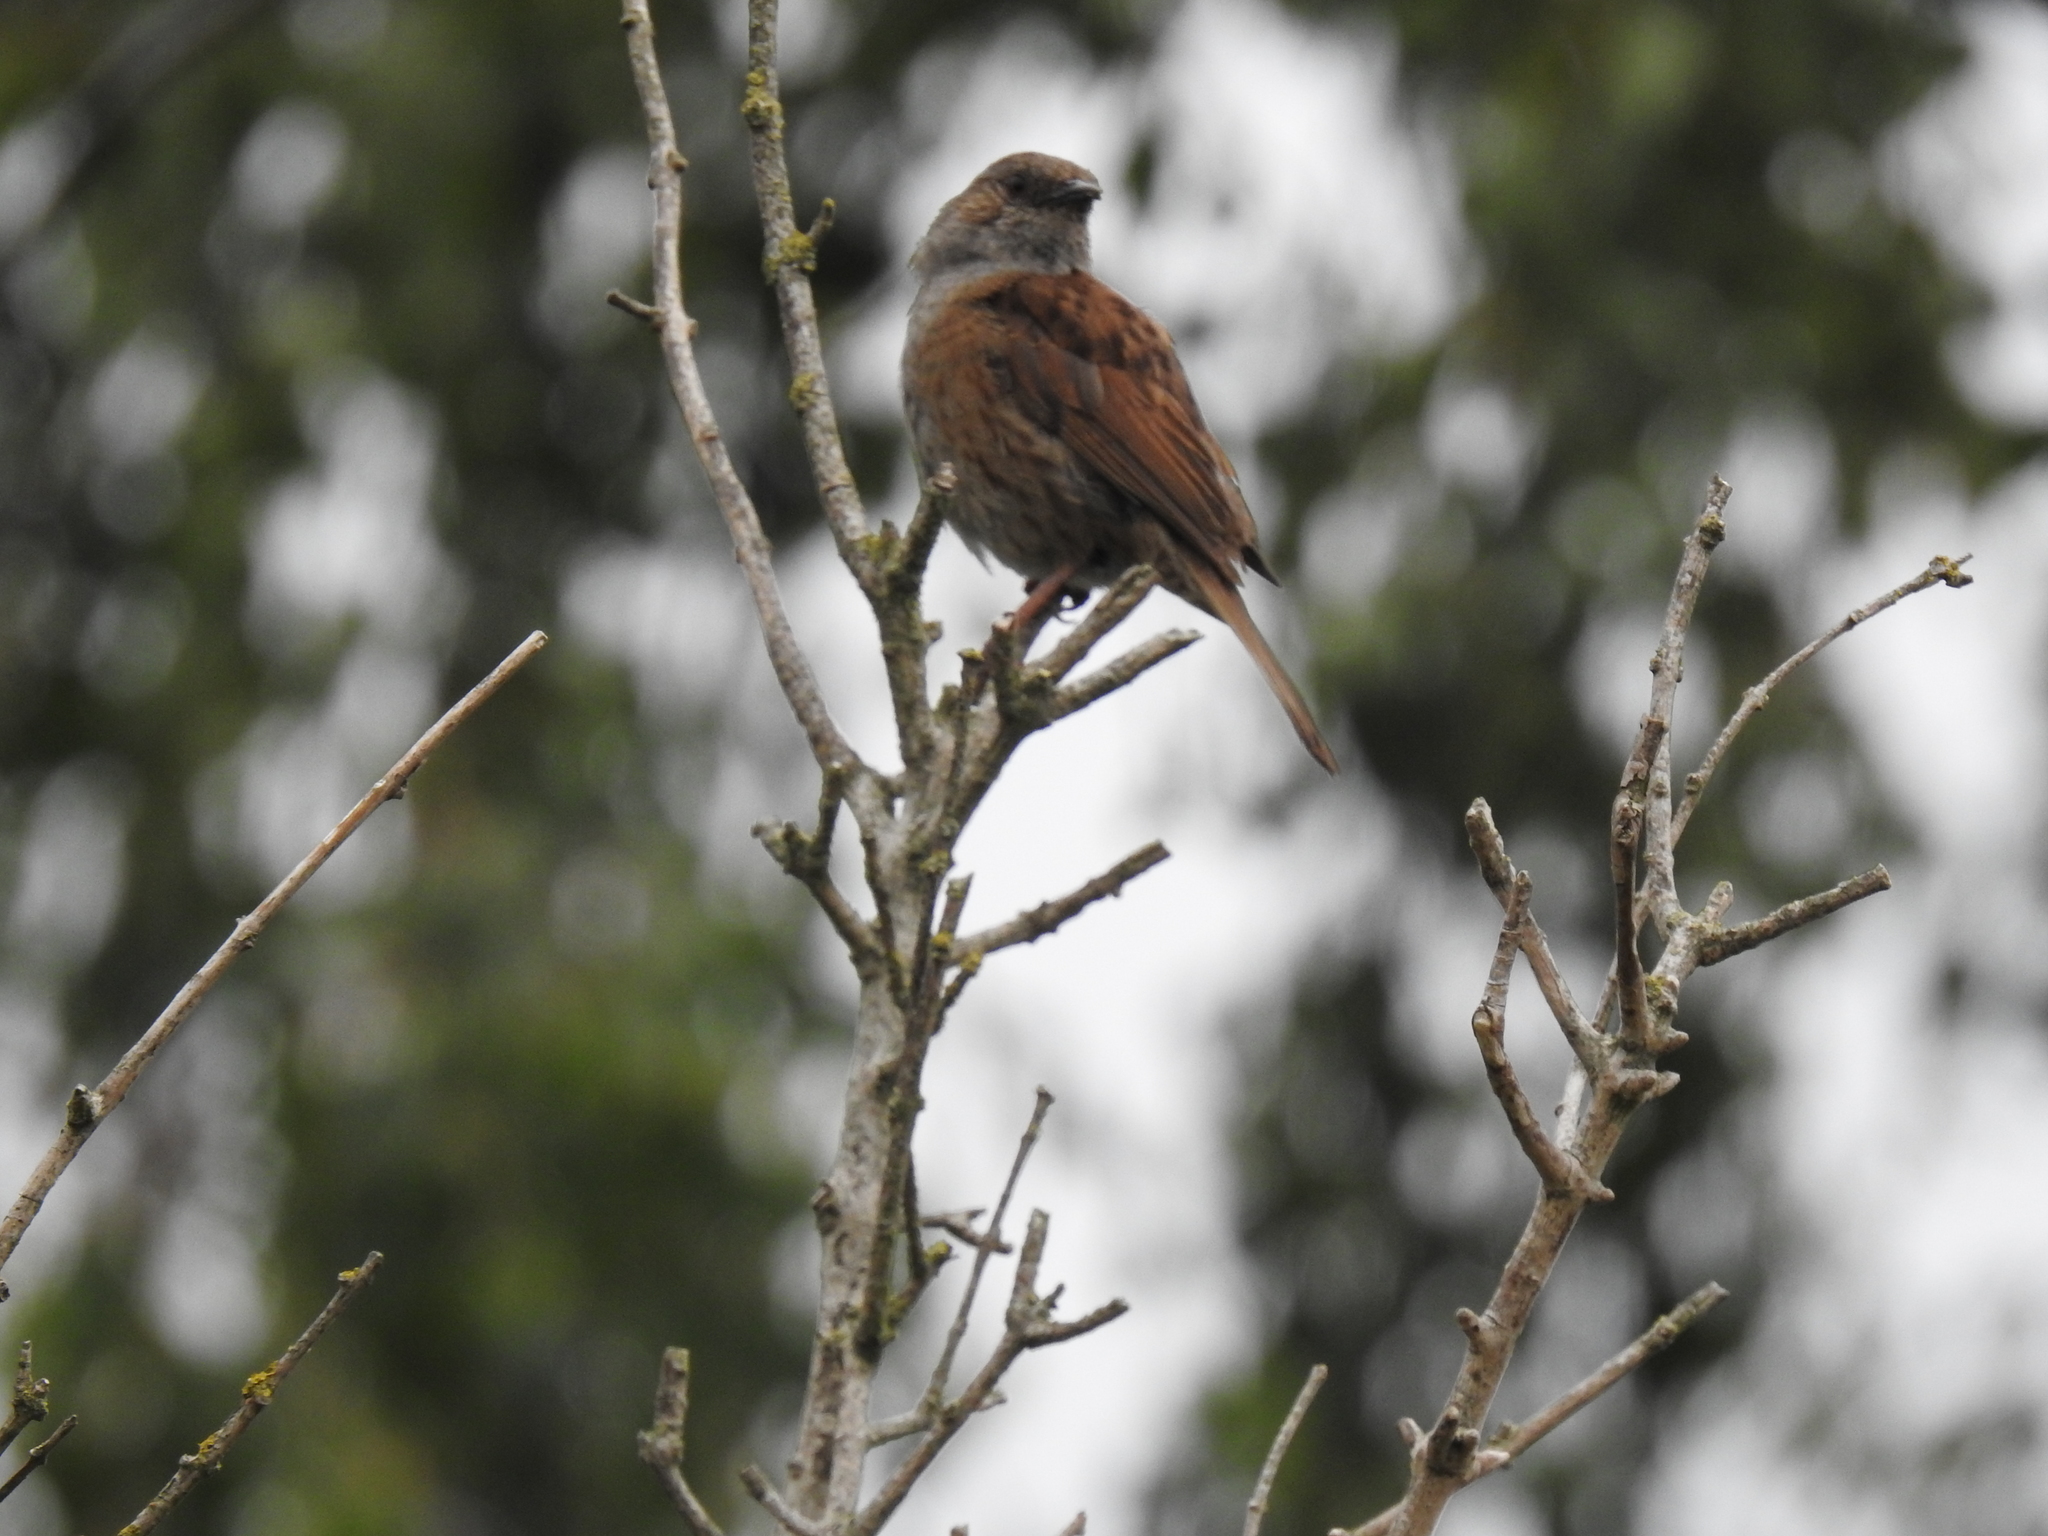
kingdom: Animalia
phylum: Chordata
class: Aves
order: Passeriformes
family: Prunellidae
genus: Prunella
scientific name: Prunella modularis
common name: Dunnock
